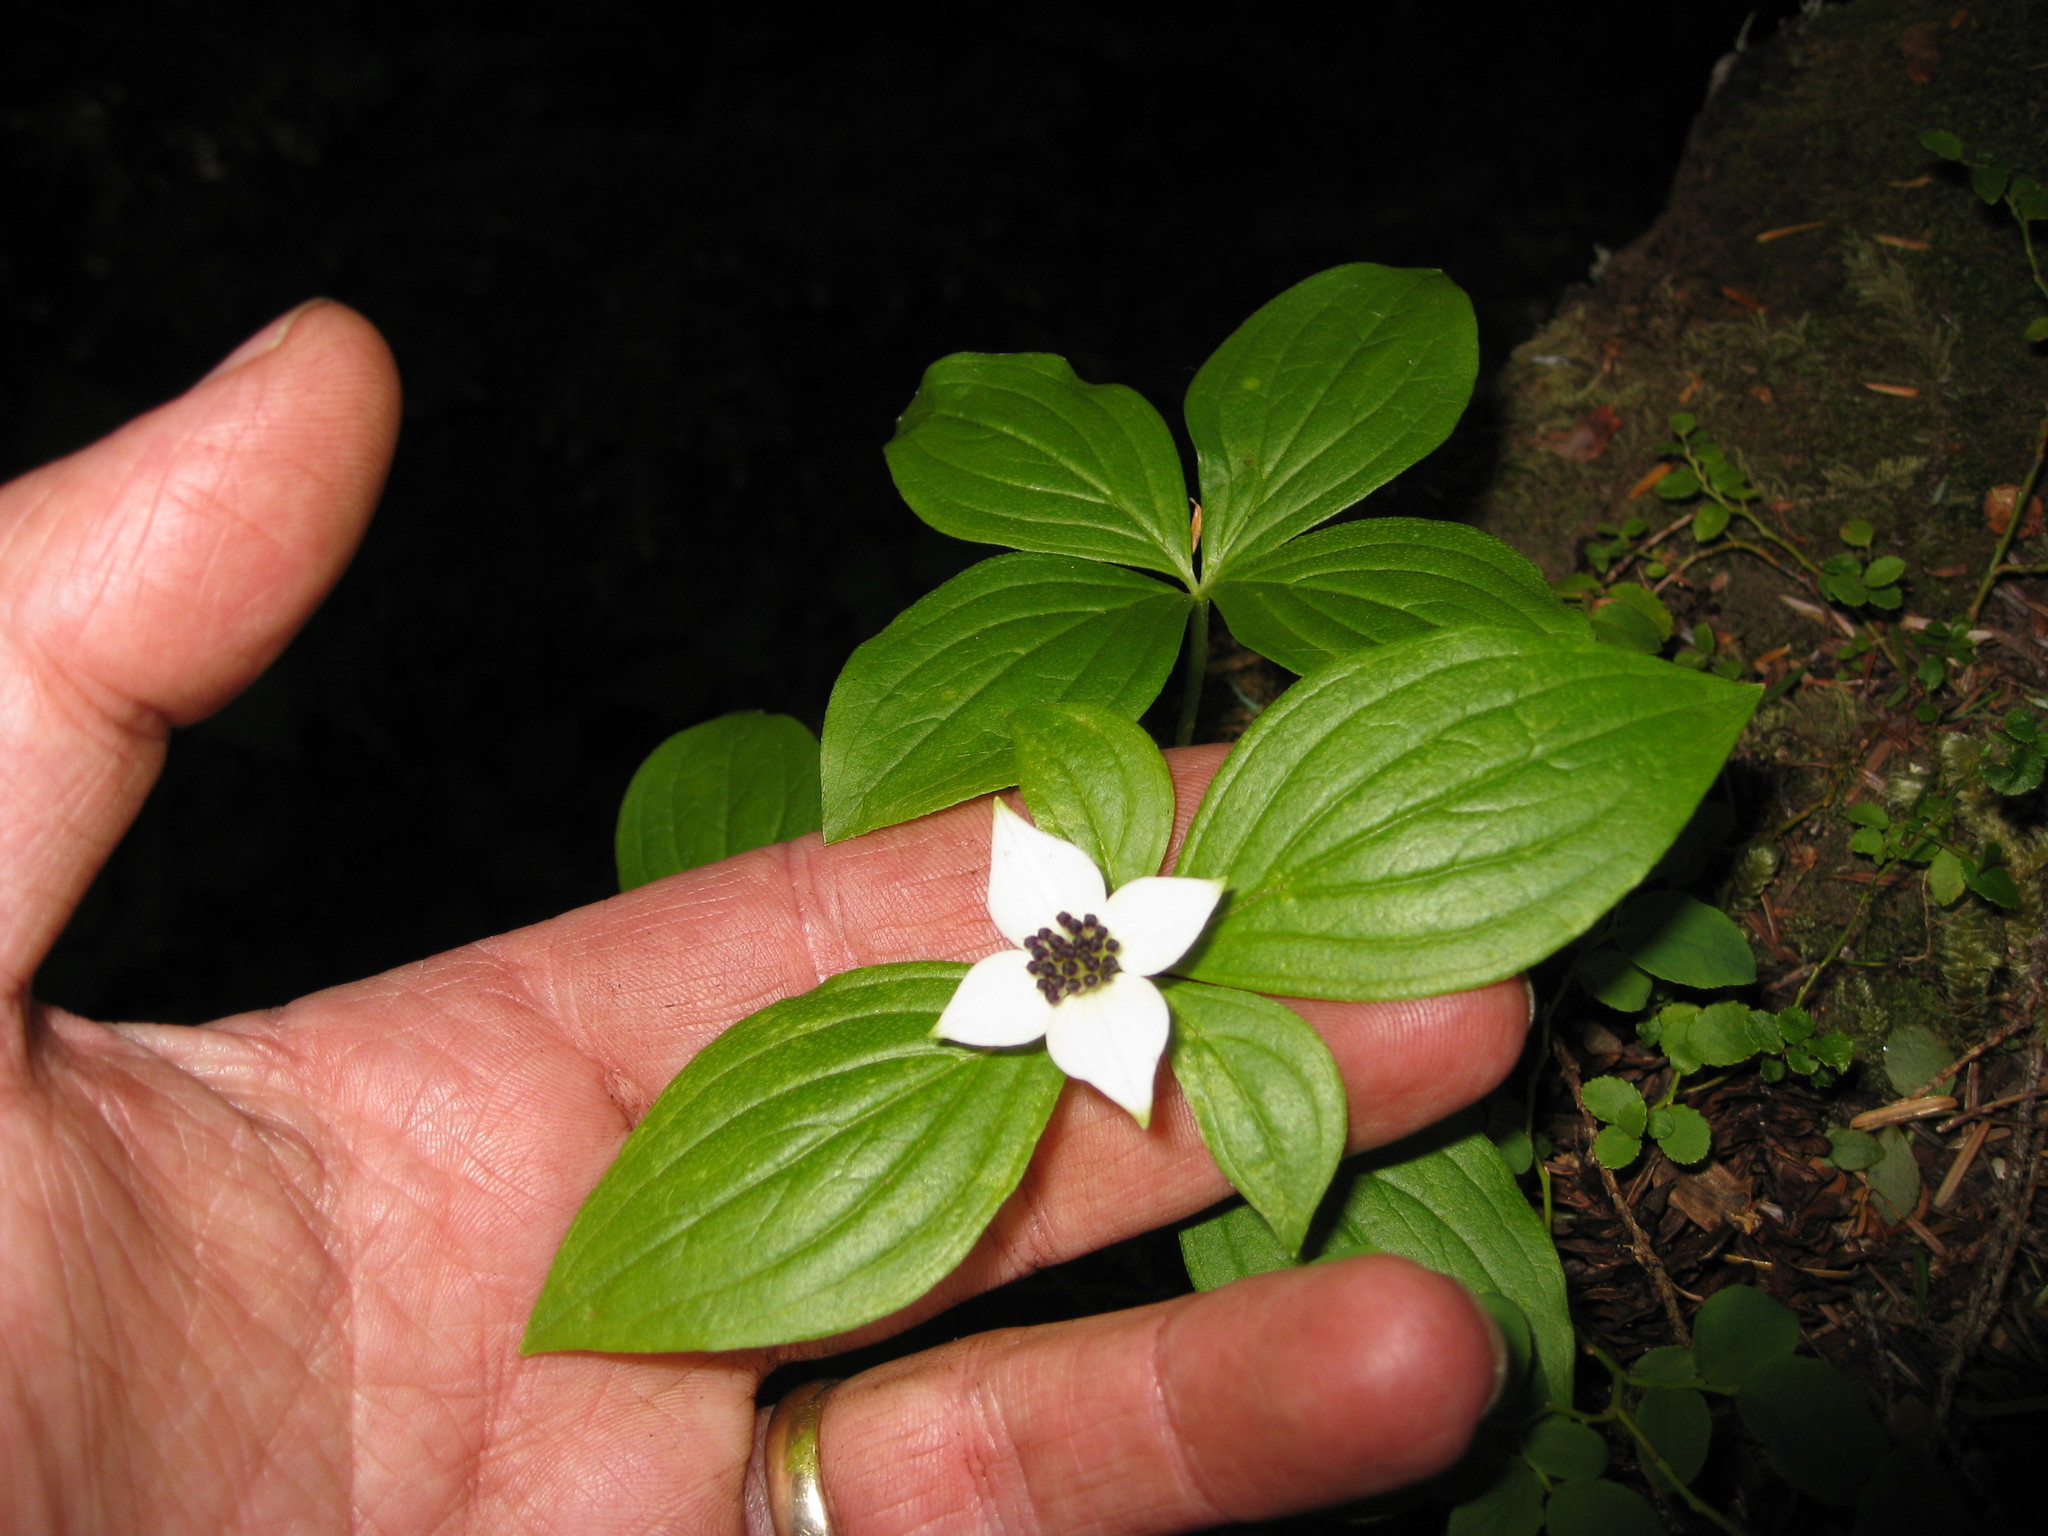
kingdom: Plantae
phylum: Tracheophyta
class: Magnoliopsida
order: Cornales
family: Cornaceae
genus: Cornus
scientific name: Cornus unalaschkensis
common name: Alaska bunchberry
